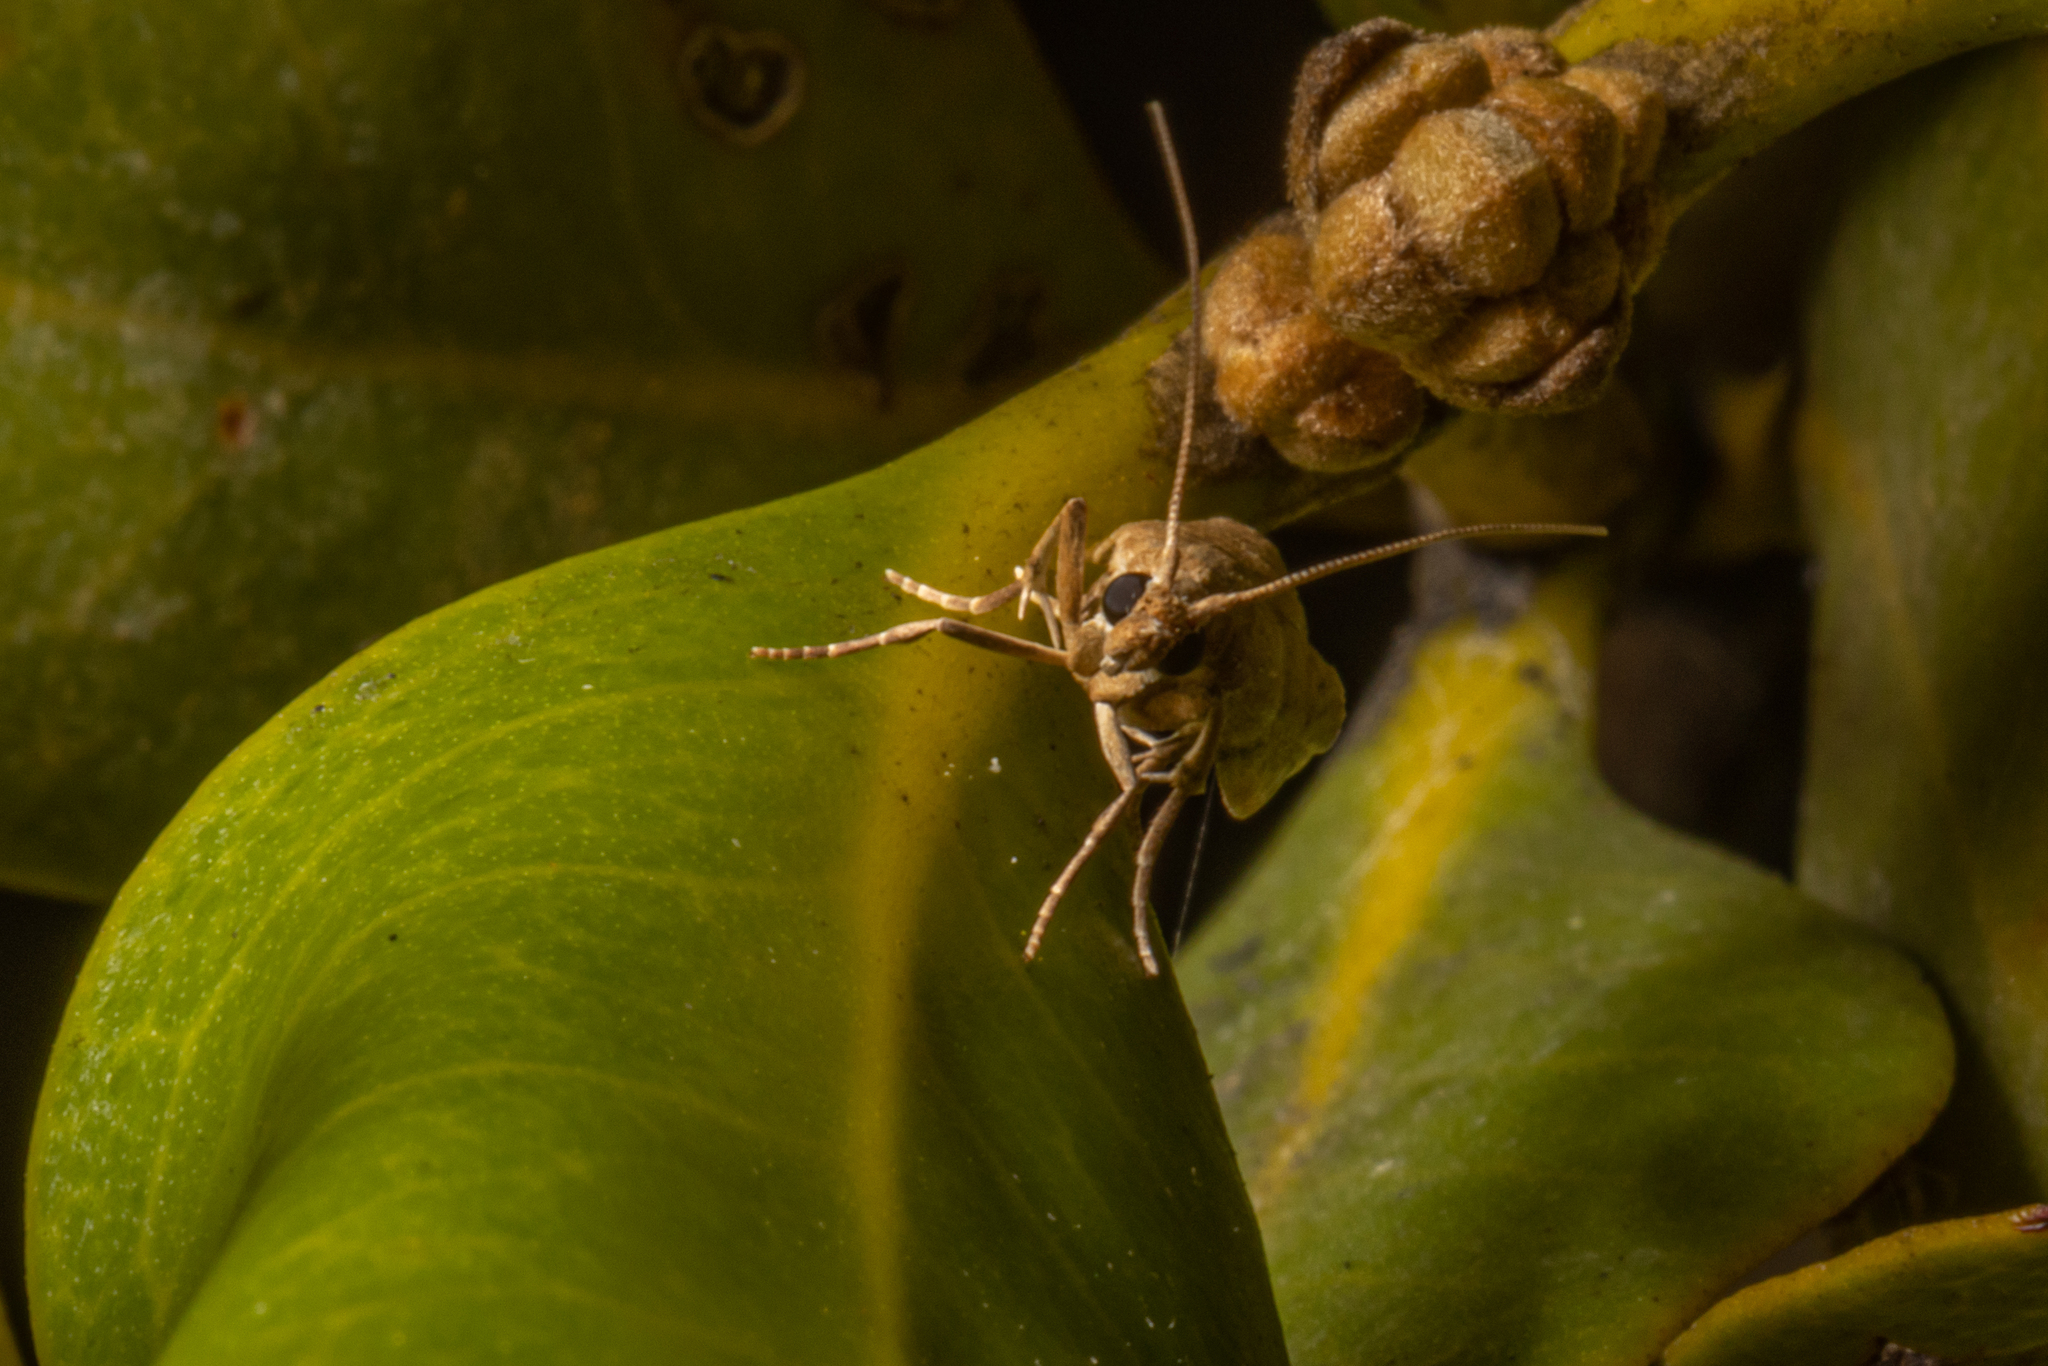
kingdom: Animalia
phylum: Arthropoda
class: Insecta
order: Lepidoptera
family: Pyralidae
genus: Ptyomaxia
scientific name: Ptyomaxia trigonogramma
